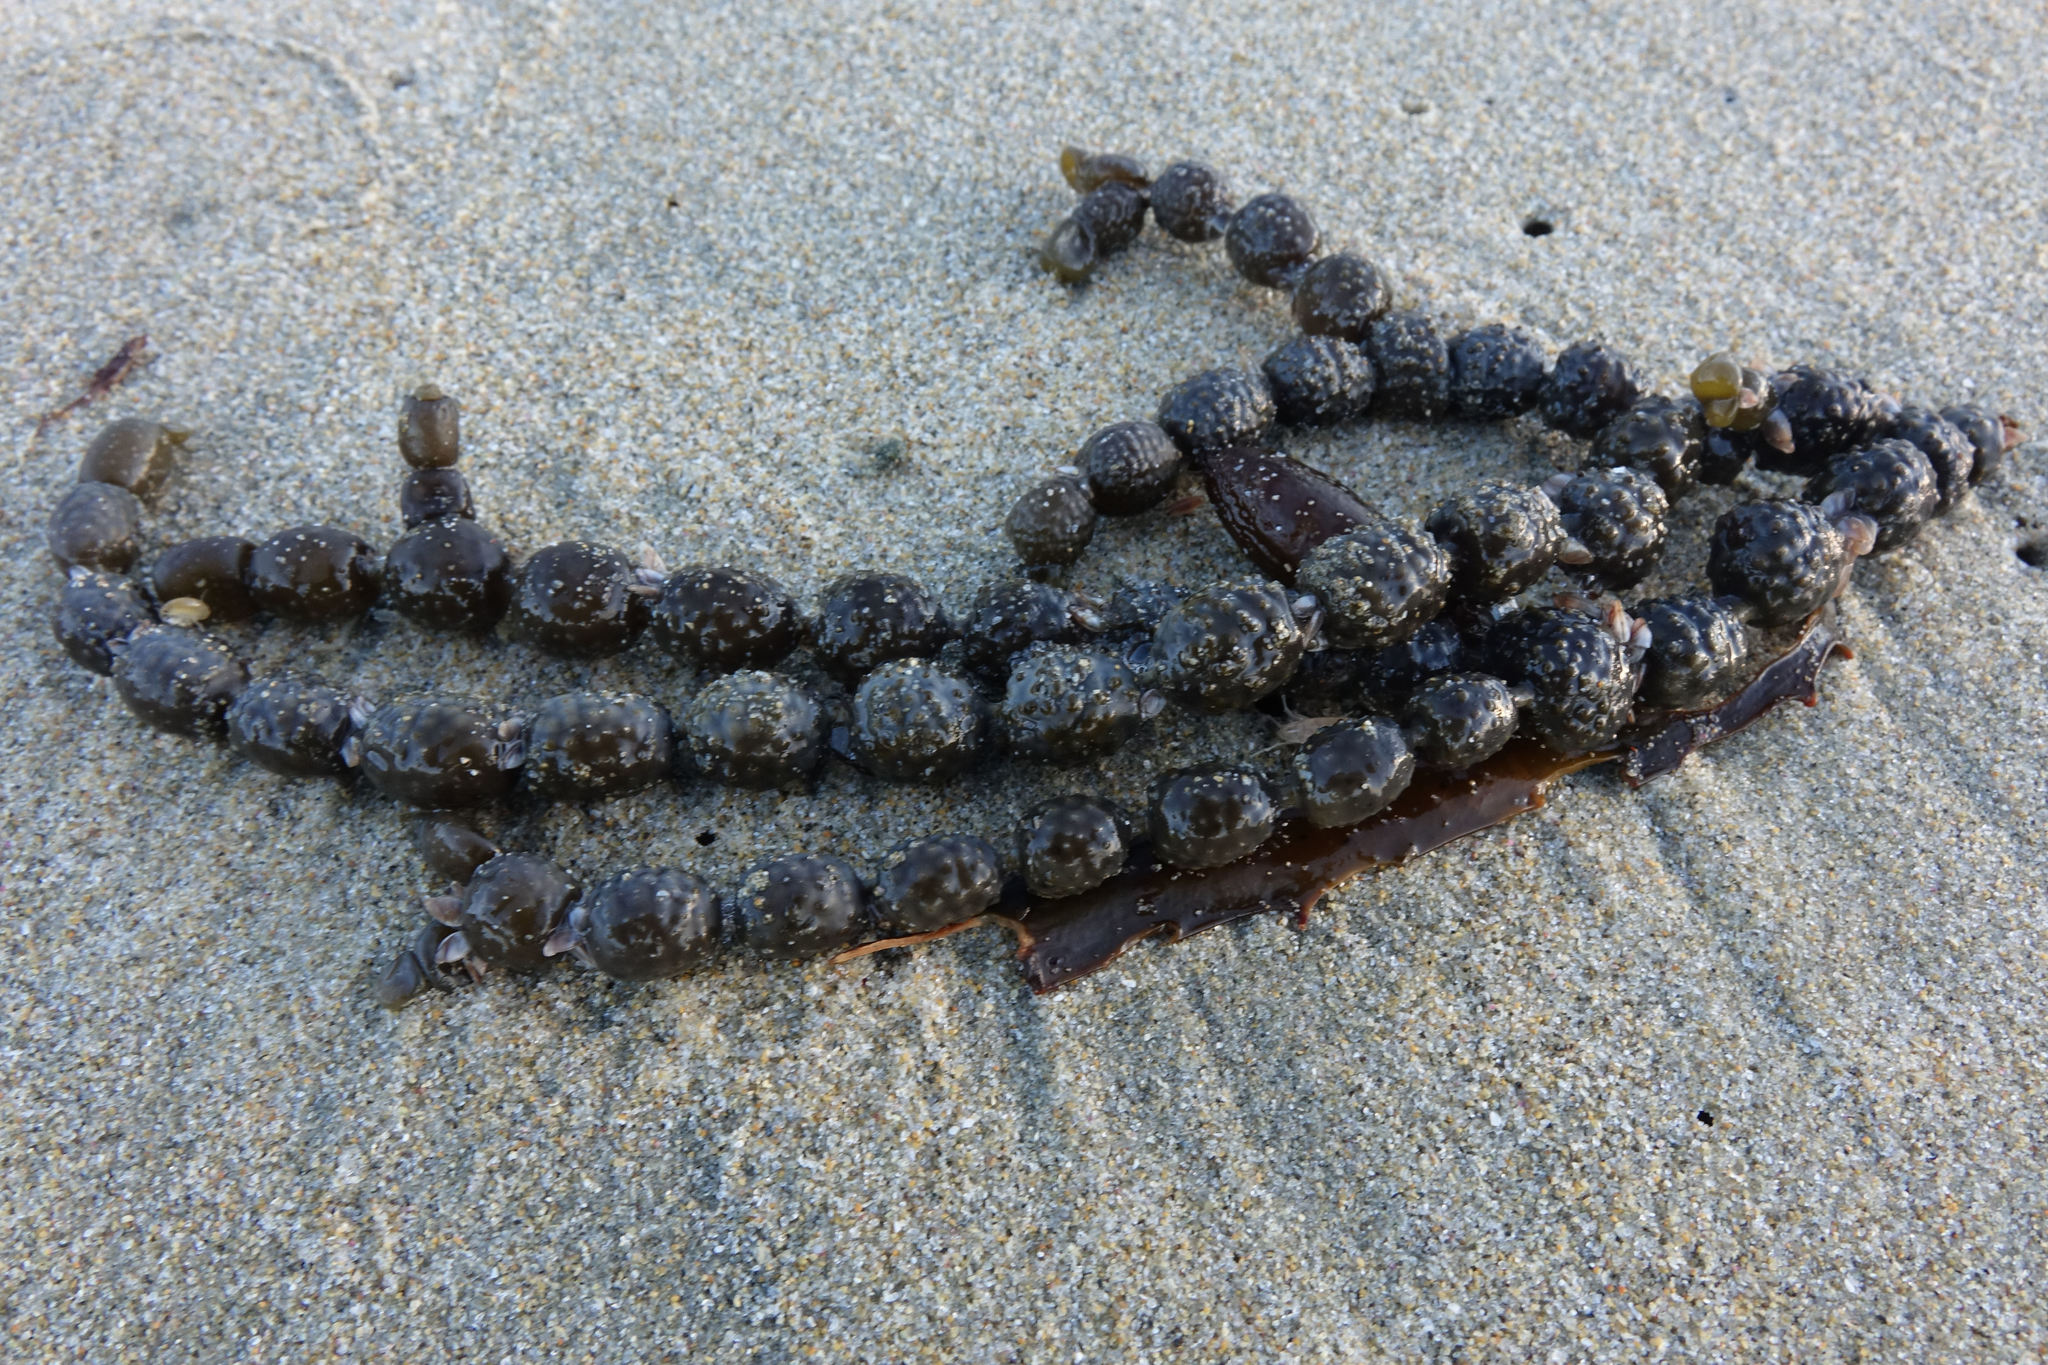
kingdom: Chromista
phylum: Ochrophyta
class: Phaeophyceae
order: Fucales
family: Hormosiraceae
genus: Hormosira
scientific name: Hormosira banksii
